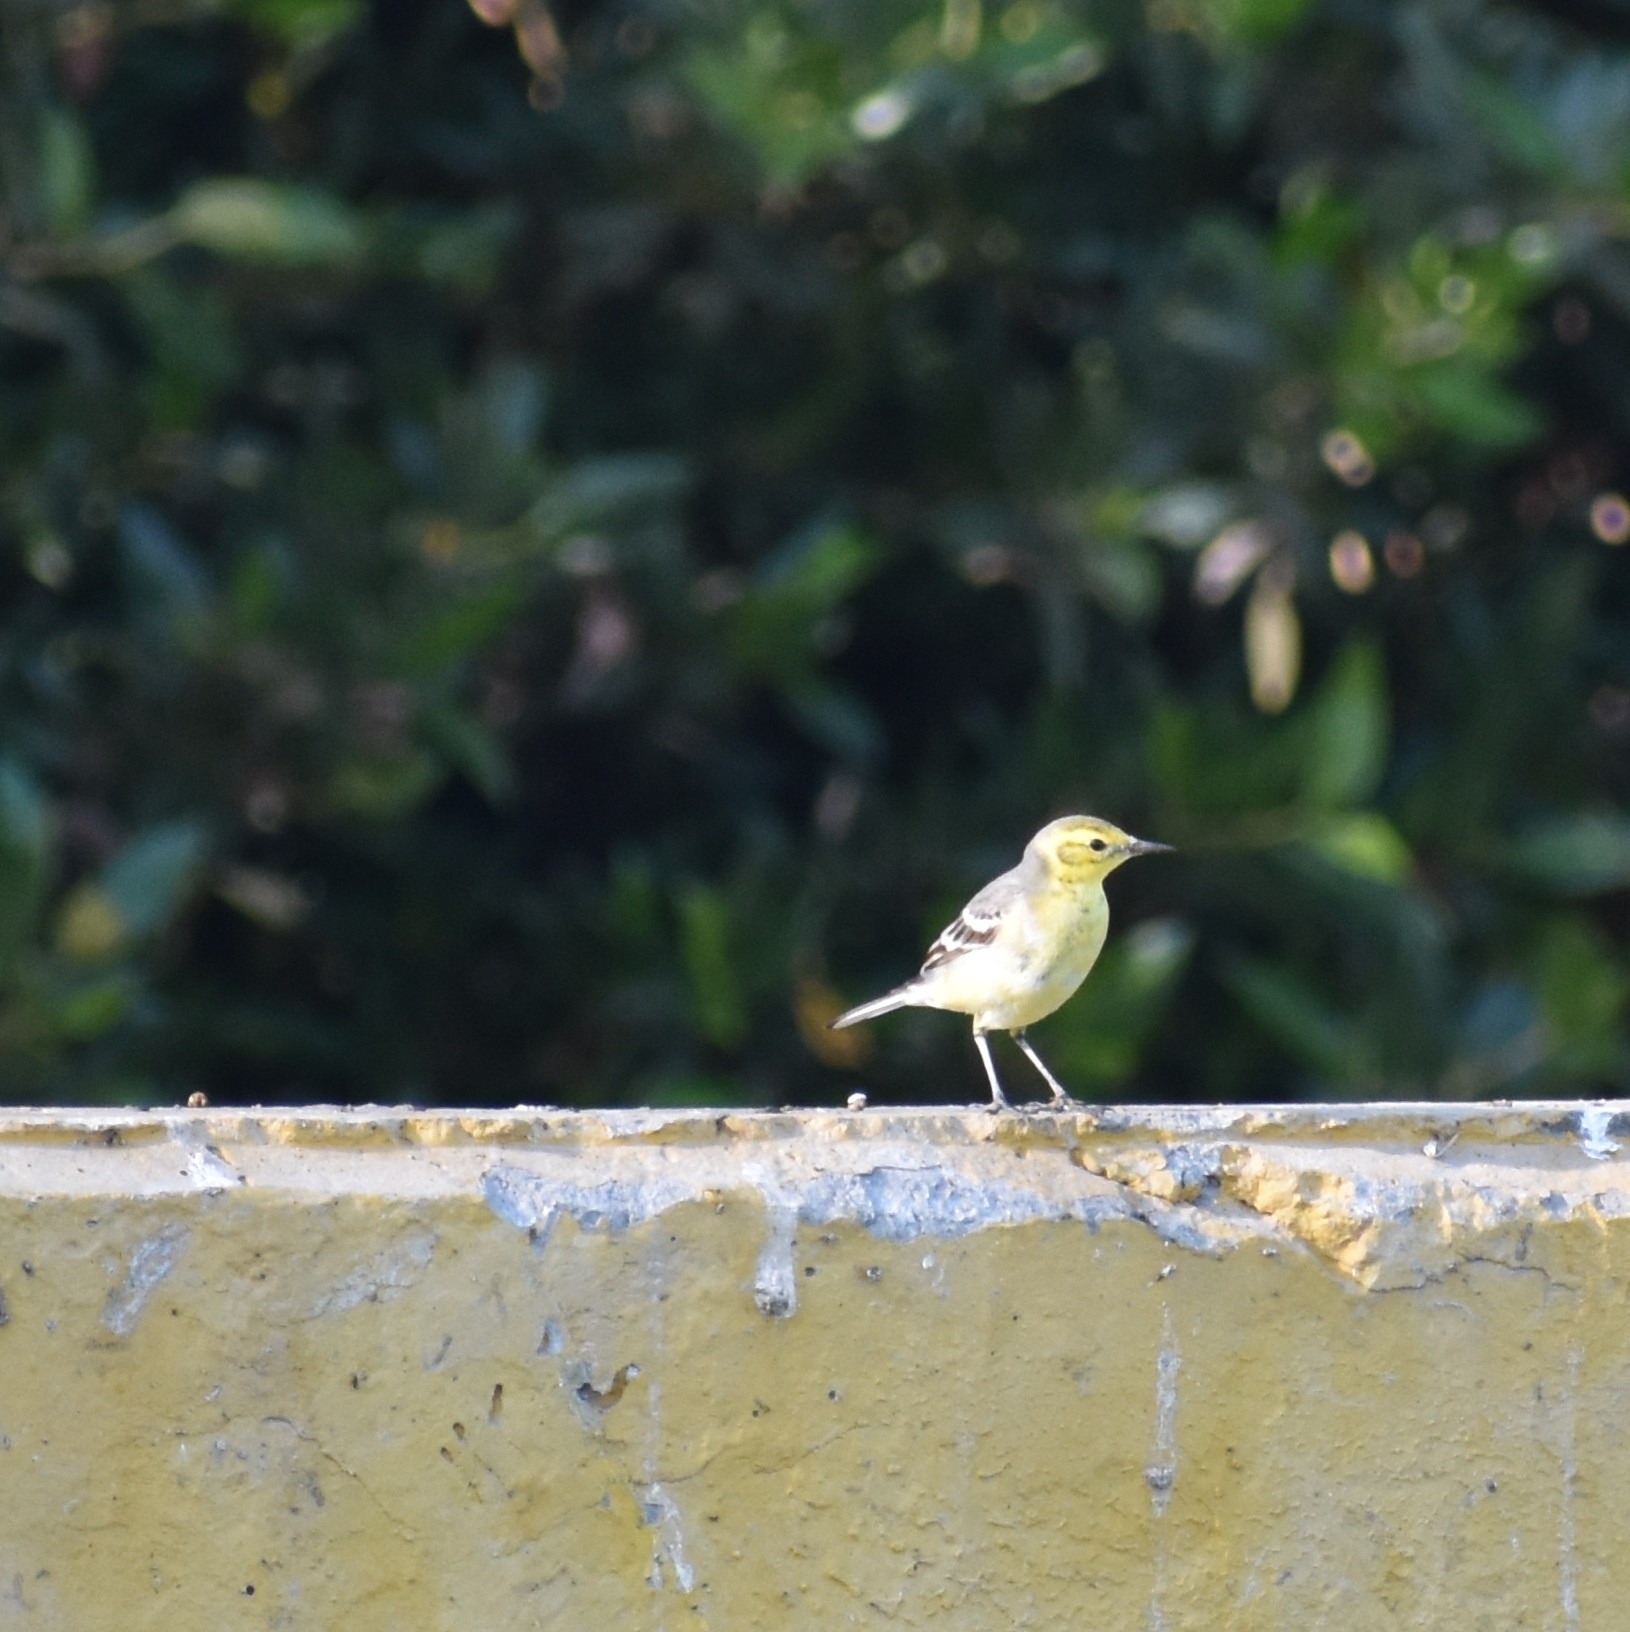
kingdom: Animalia
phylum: Chordata
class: Aves
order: Passeriformes
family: Motacillidae
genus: Motacilla
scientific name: Motacilla citreola
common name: Citrine wagtail
